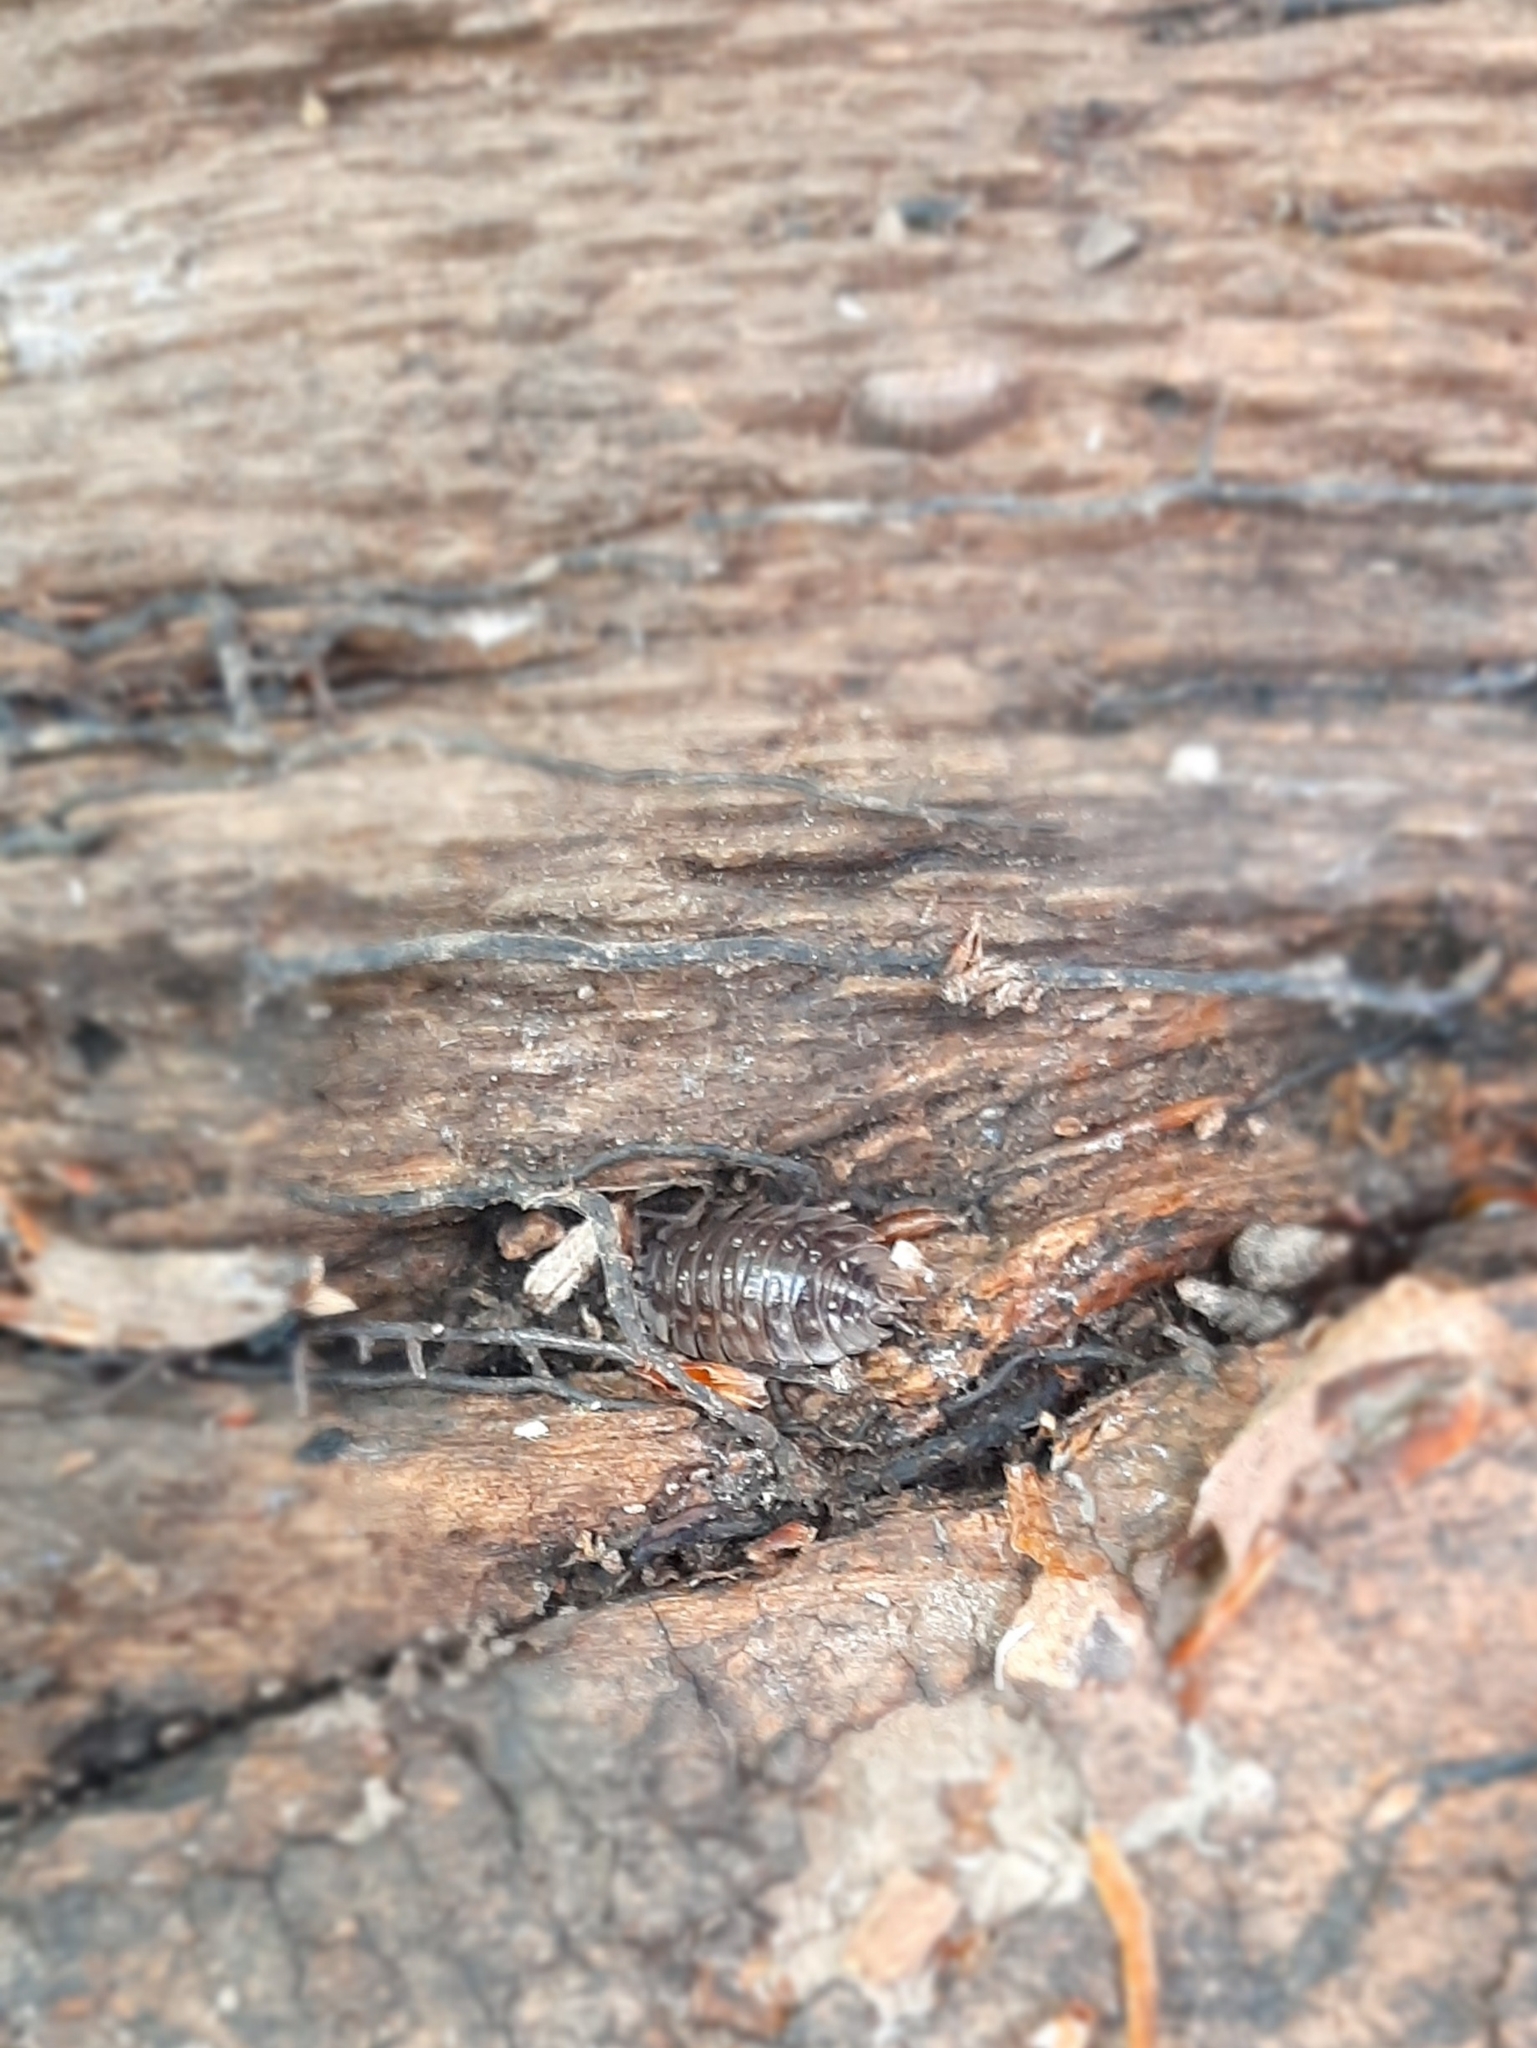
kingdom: Animalia
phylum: Arthropoda
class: Malacostraca
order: Isopoda
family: Oniscidae
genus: Oniscus
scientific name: Oniscus asellus
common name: Common shiny woodlouse
